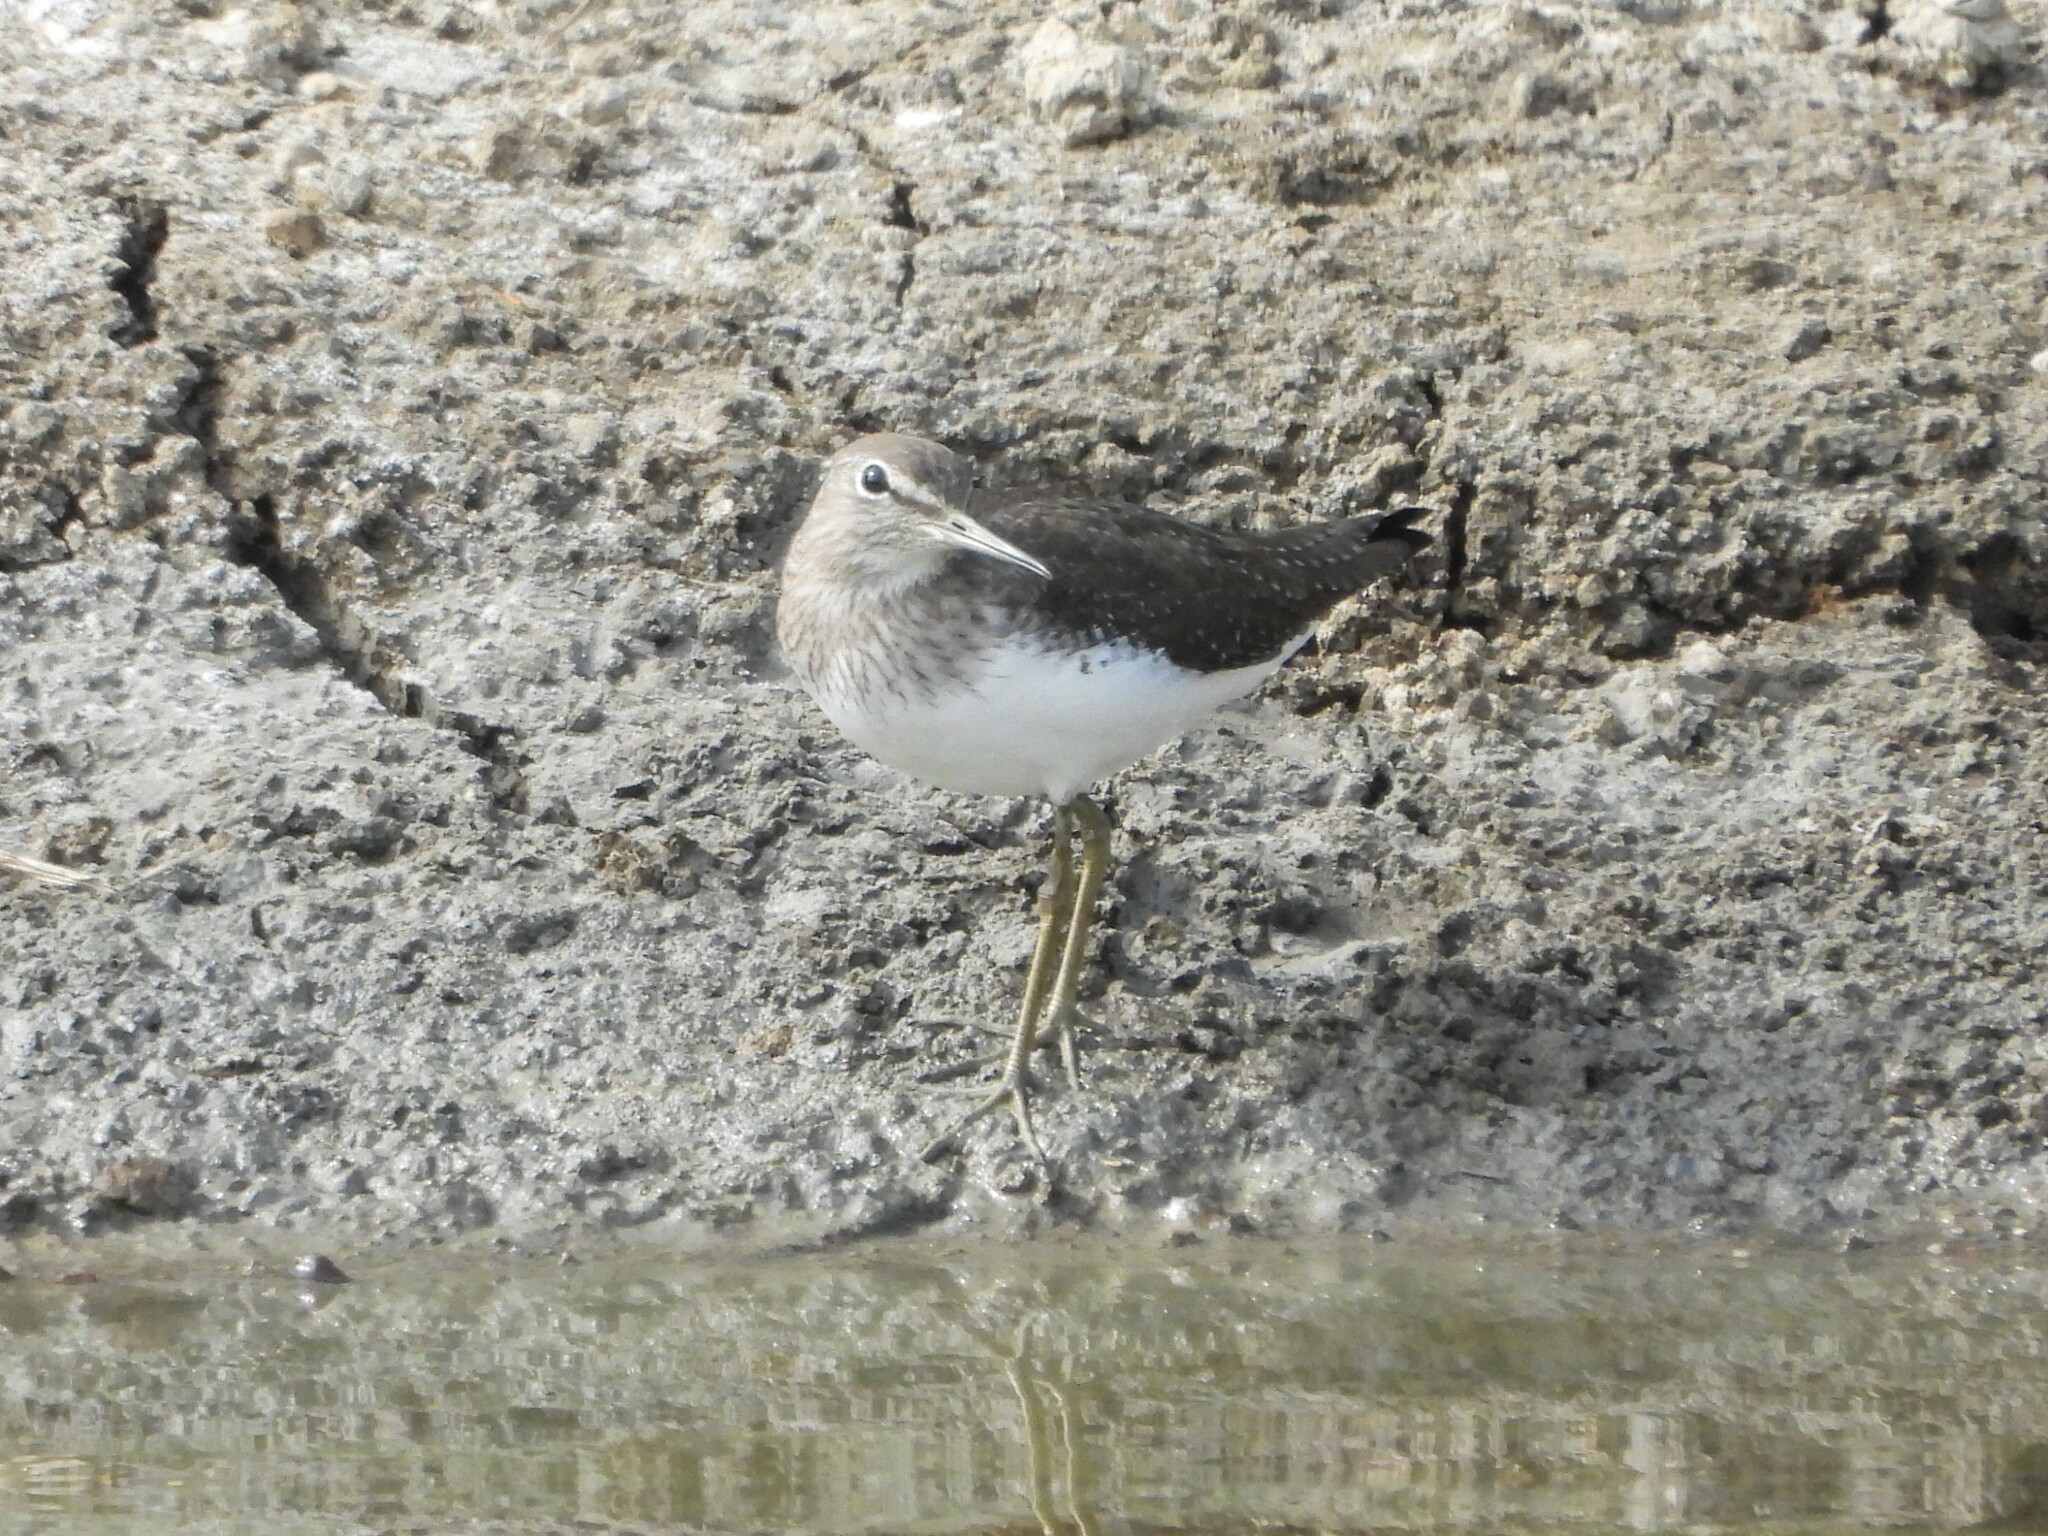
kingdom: Animalia
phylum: Chordata
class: Aves
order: Charadriiformes
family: Scolopacidae
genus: Tringa
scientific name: Tringa ochropus
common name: Green sandpiper
